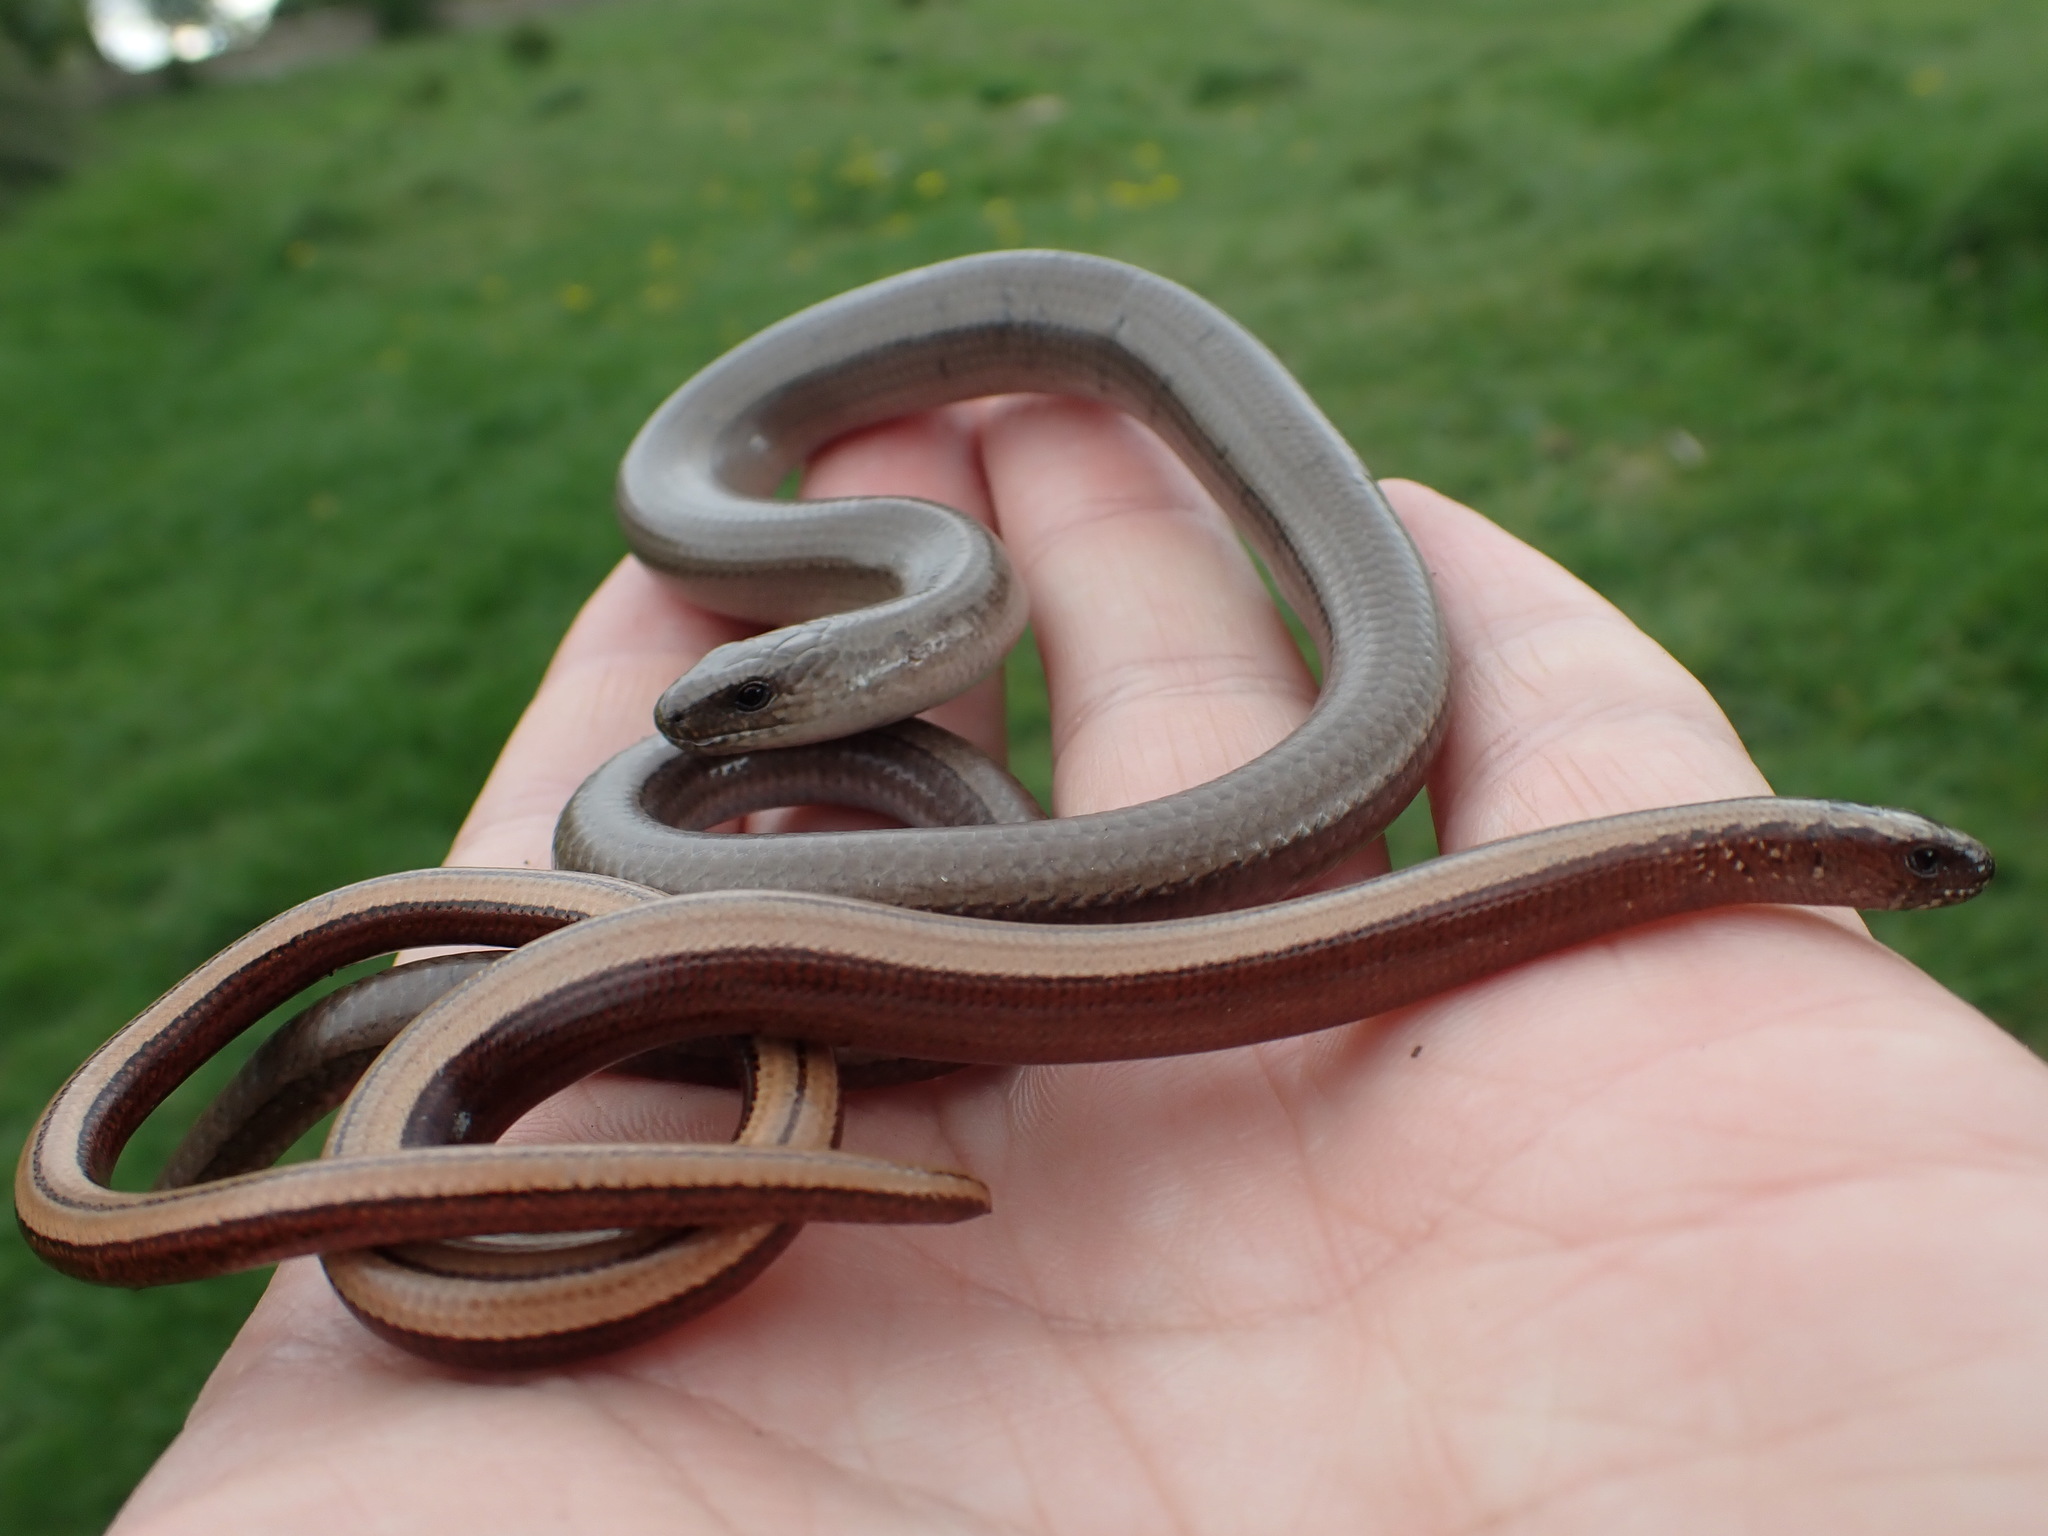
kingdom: Animalia
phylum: Chordata
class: Squamata
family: Anguidae
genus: Anguis
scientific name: Anguis fragilis
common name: Slow worm
